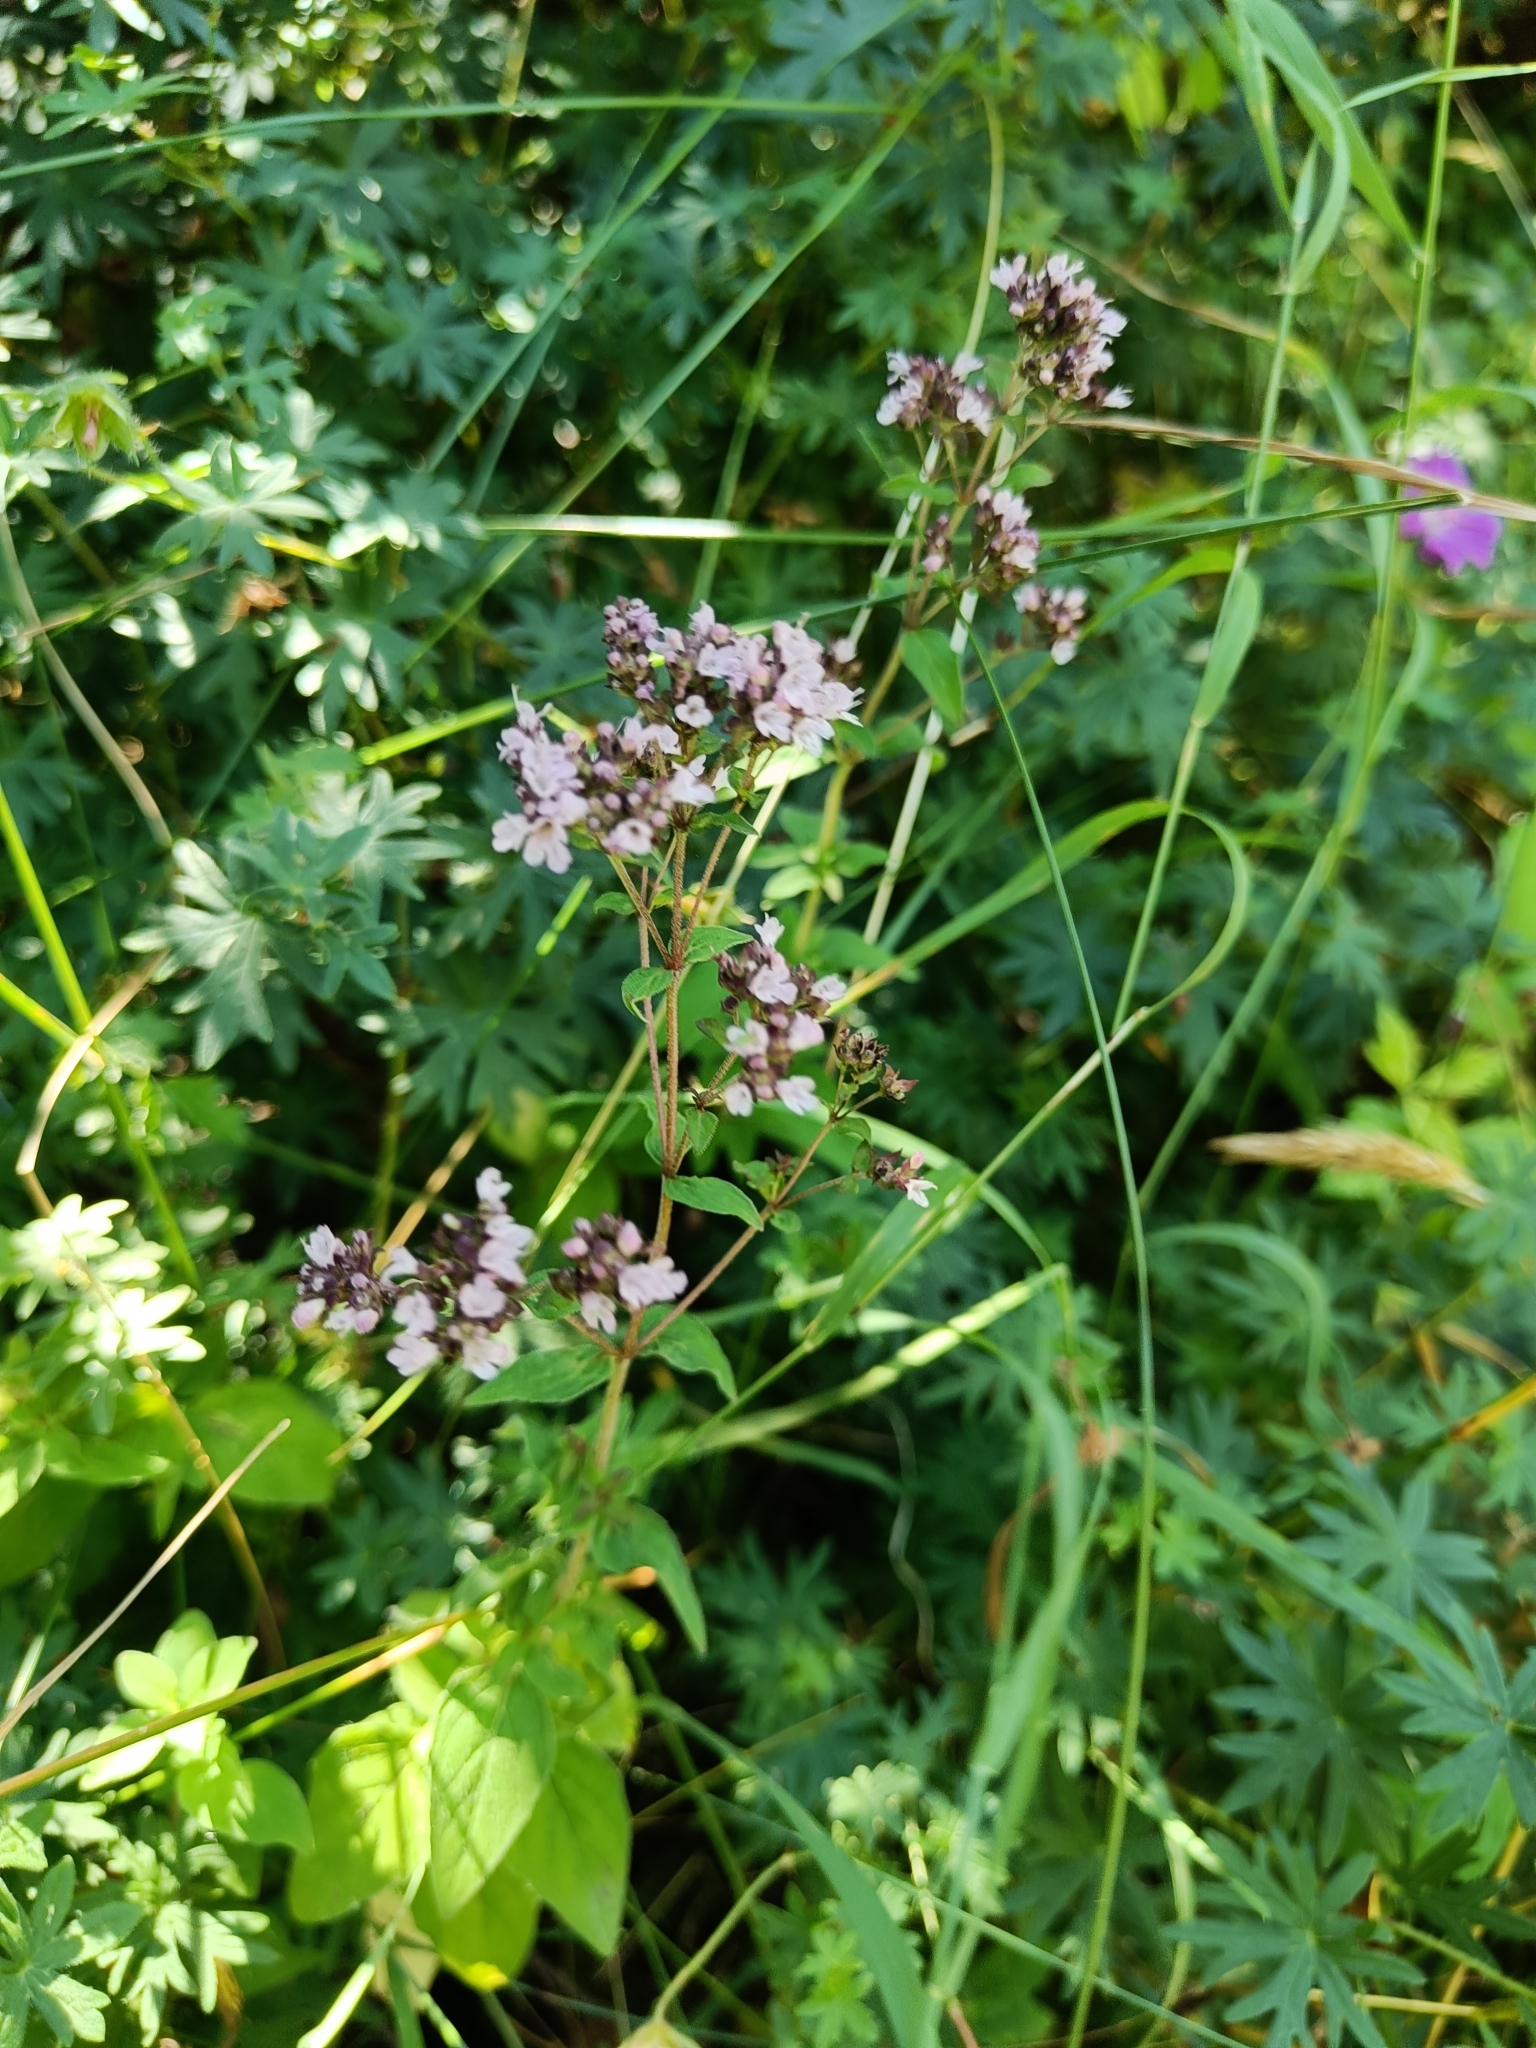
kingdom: Plantae
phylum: Tracheophyta
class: Magnoliopsida
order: Lamiales
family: Lamiaceae
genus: Origanum
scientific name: Origanum vulgare
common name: Wild marjoram
